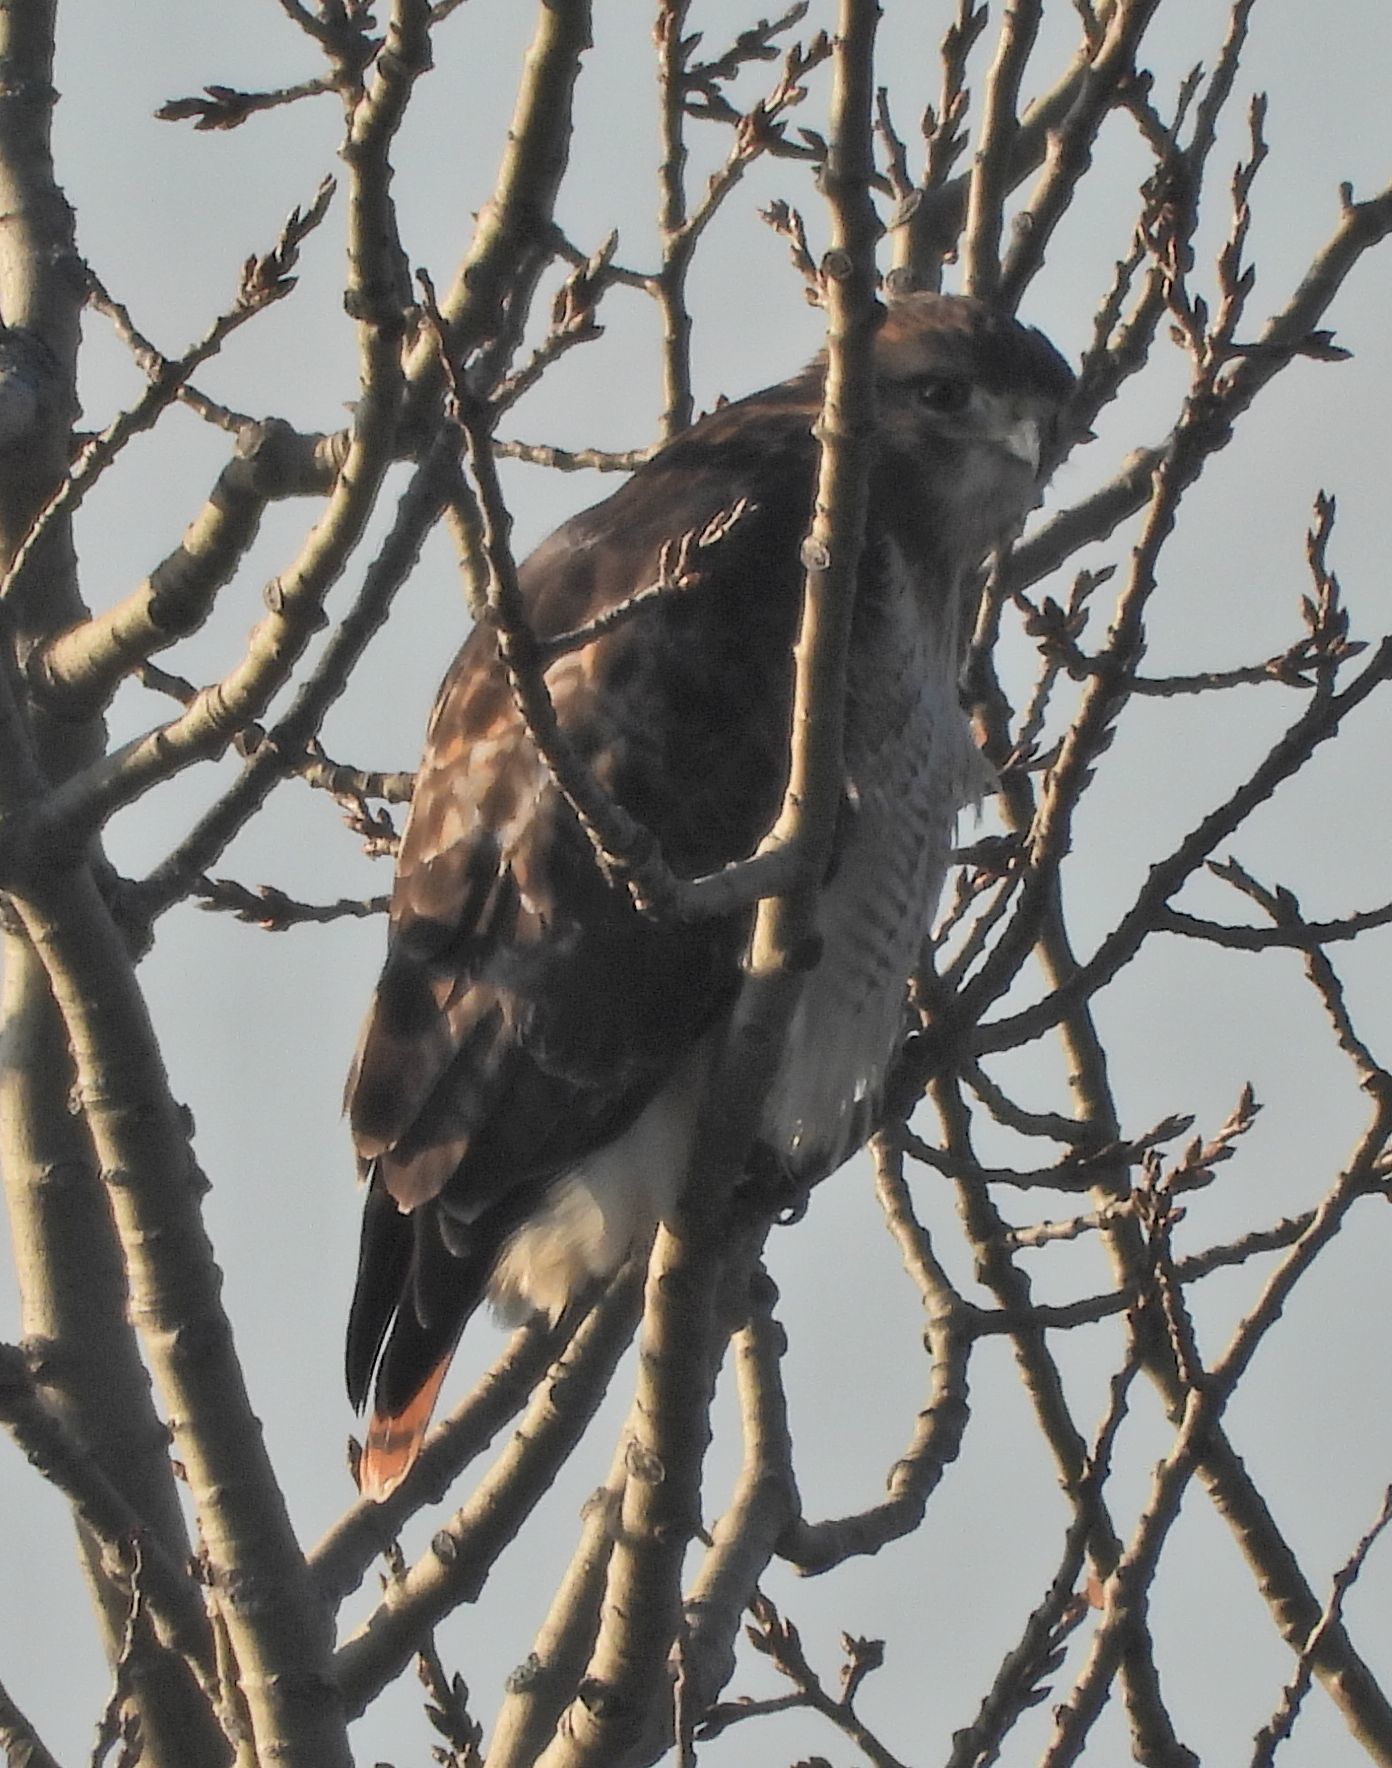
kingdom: Animalia
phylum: Chordata
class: Aves
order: Accipitriformes
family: Accipitridae
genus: Buteo
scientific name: Buteo jamaicensis
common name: Red-tailed hawk
